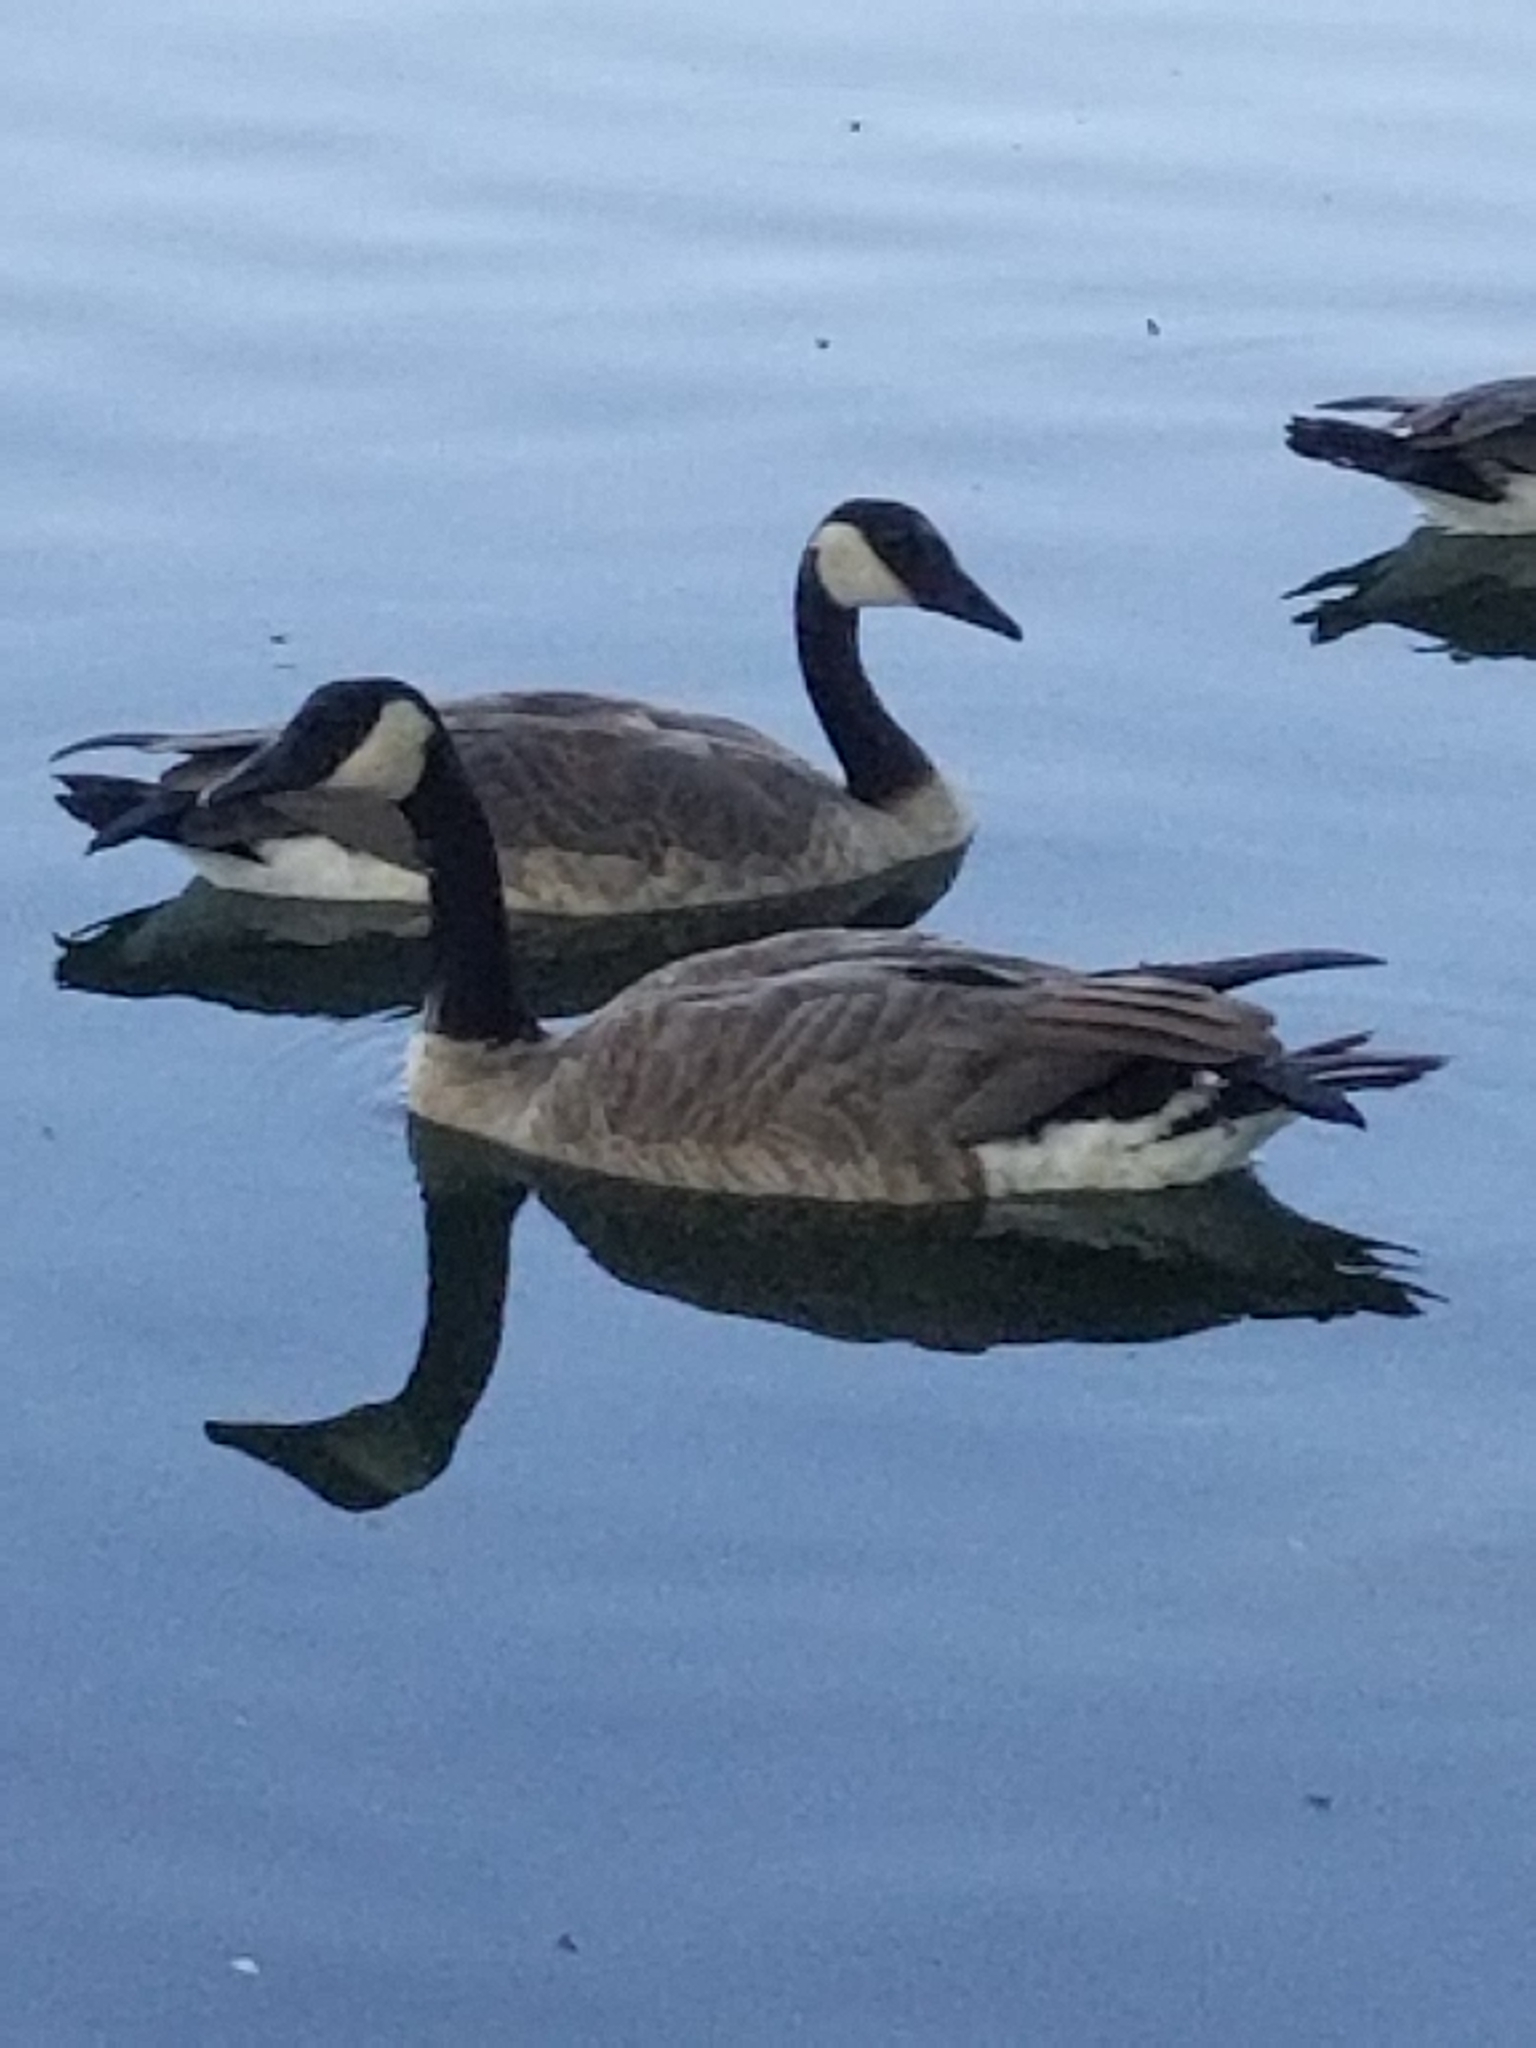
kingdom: Animalia
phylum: Chordata
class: Aves
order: Anseriformes
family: Anatidae
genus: Branta
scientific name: Branta canadensis
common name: Canada goose
